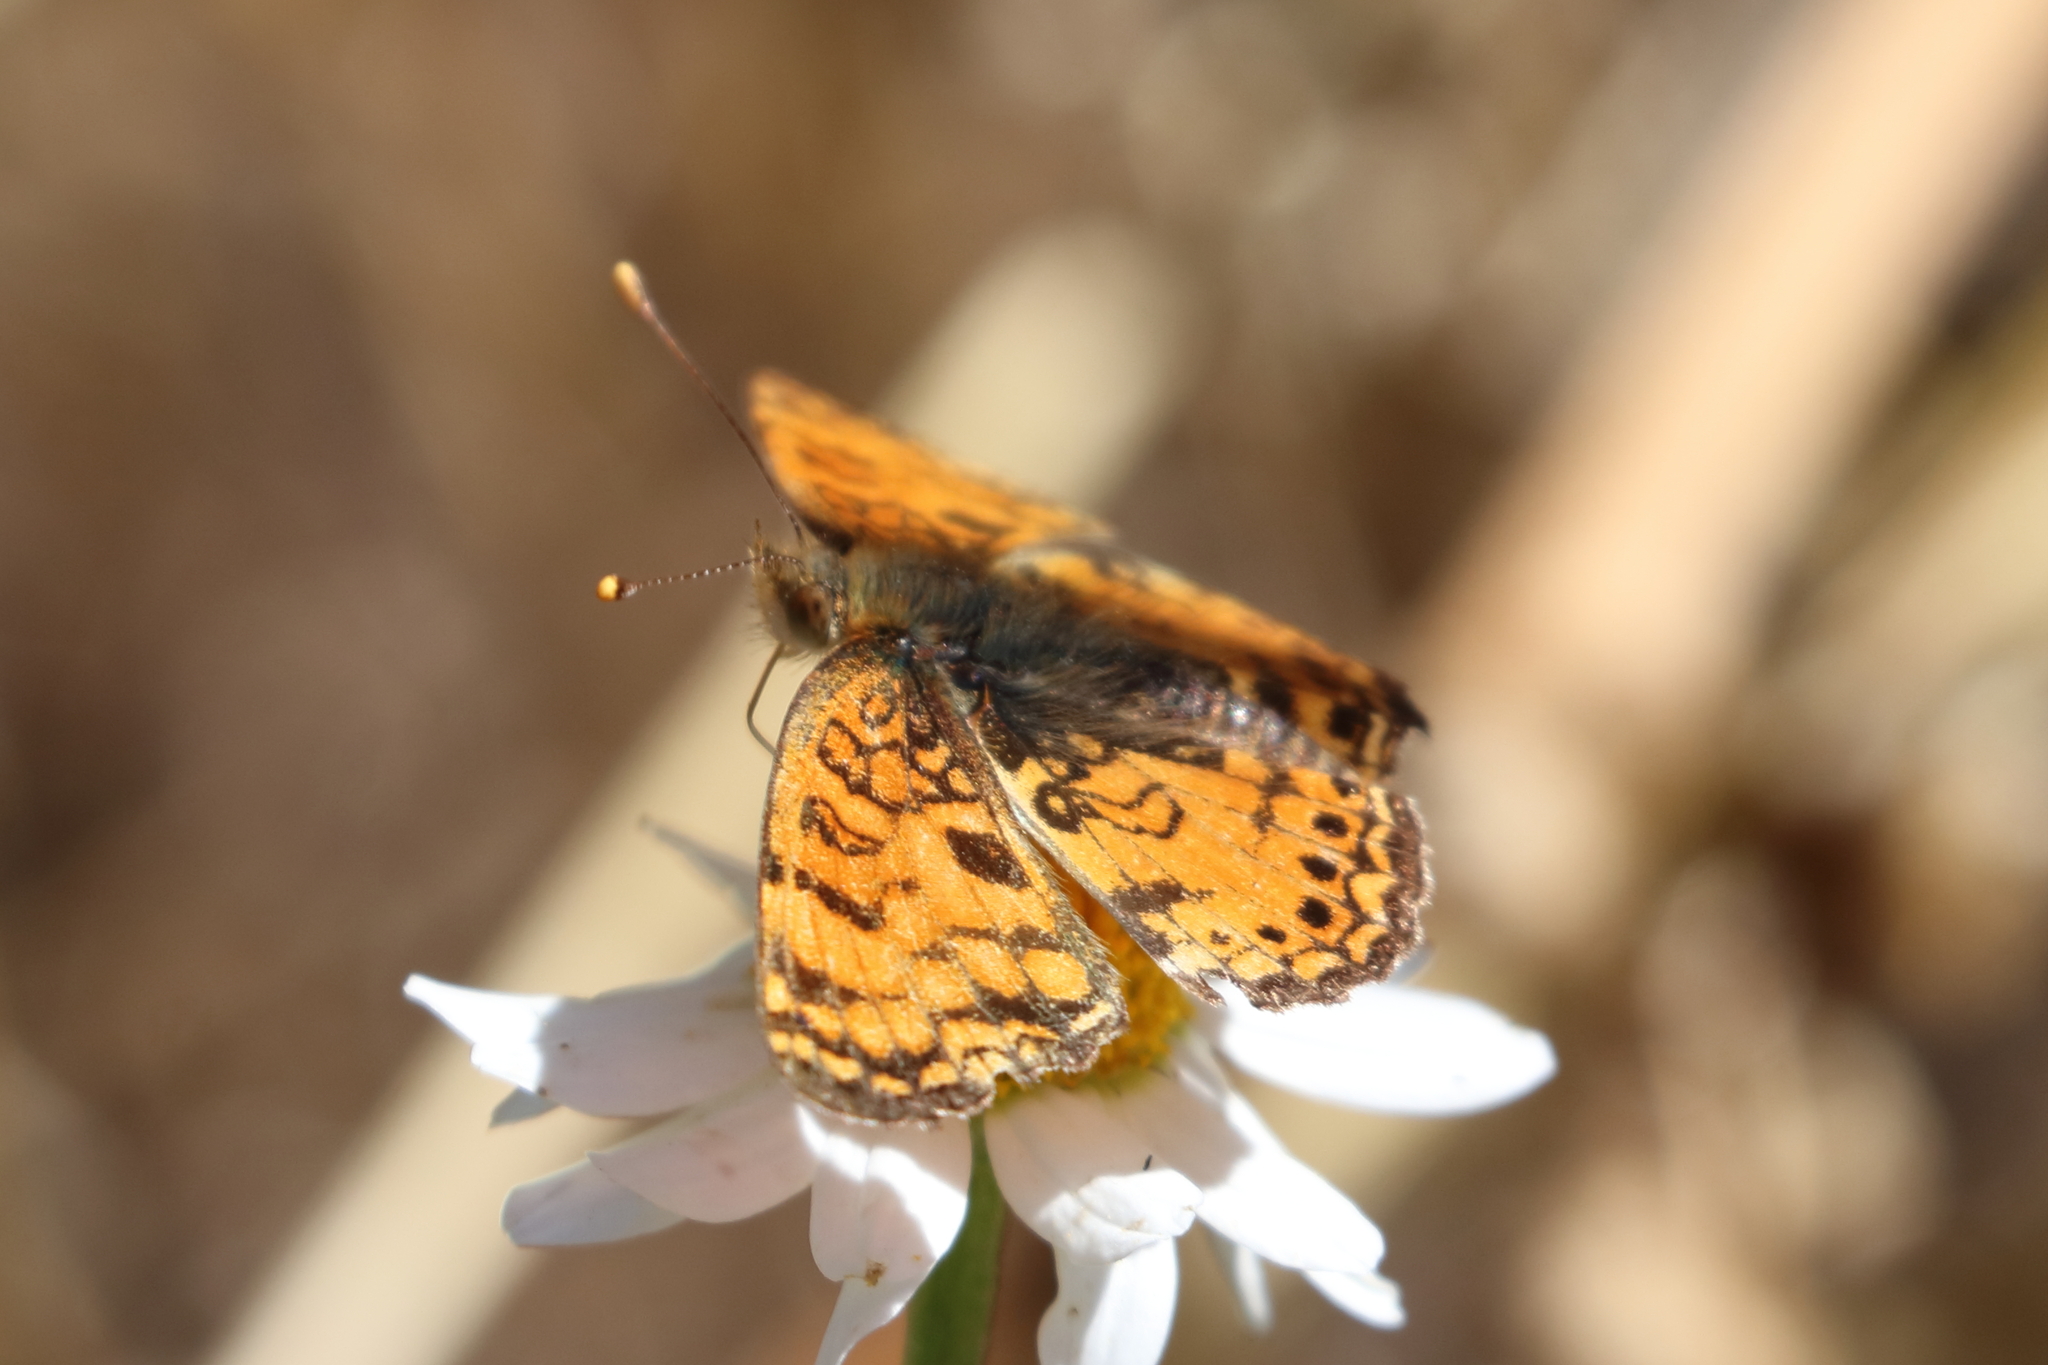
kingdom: Animalia
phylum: Arthropoda
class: Insecta
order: Lepidoptera
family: Nymphalidae
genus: Eresia
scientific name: Eresia aveyrona
